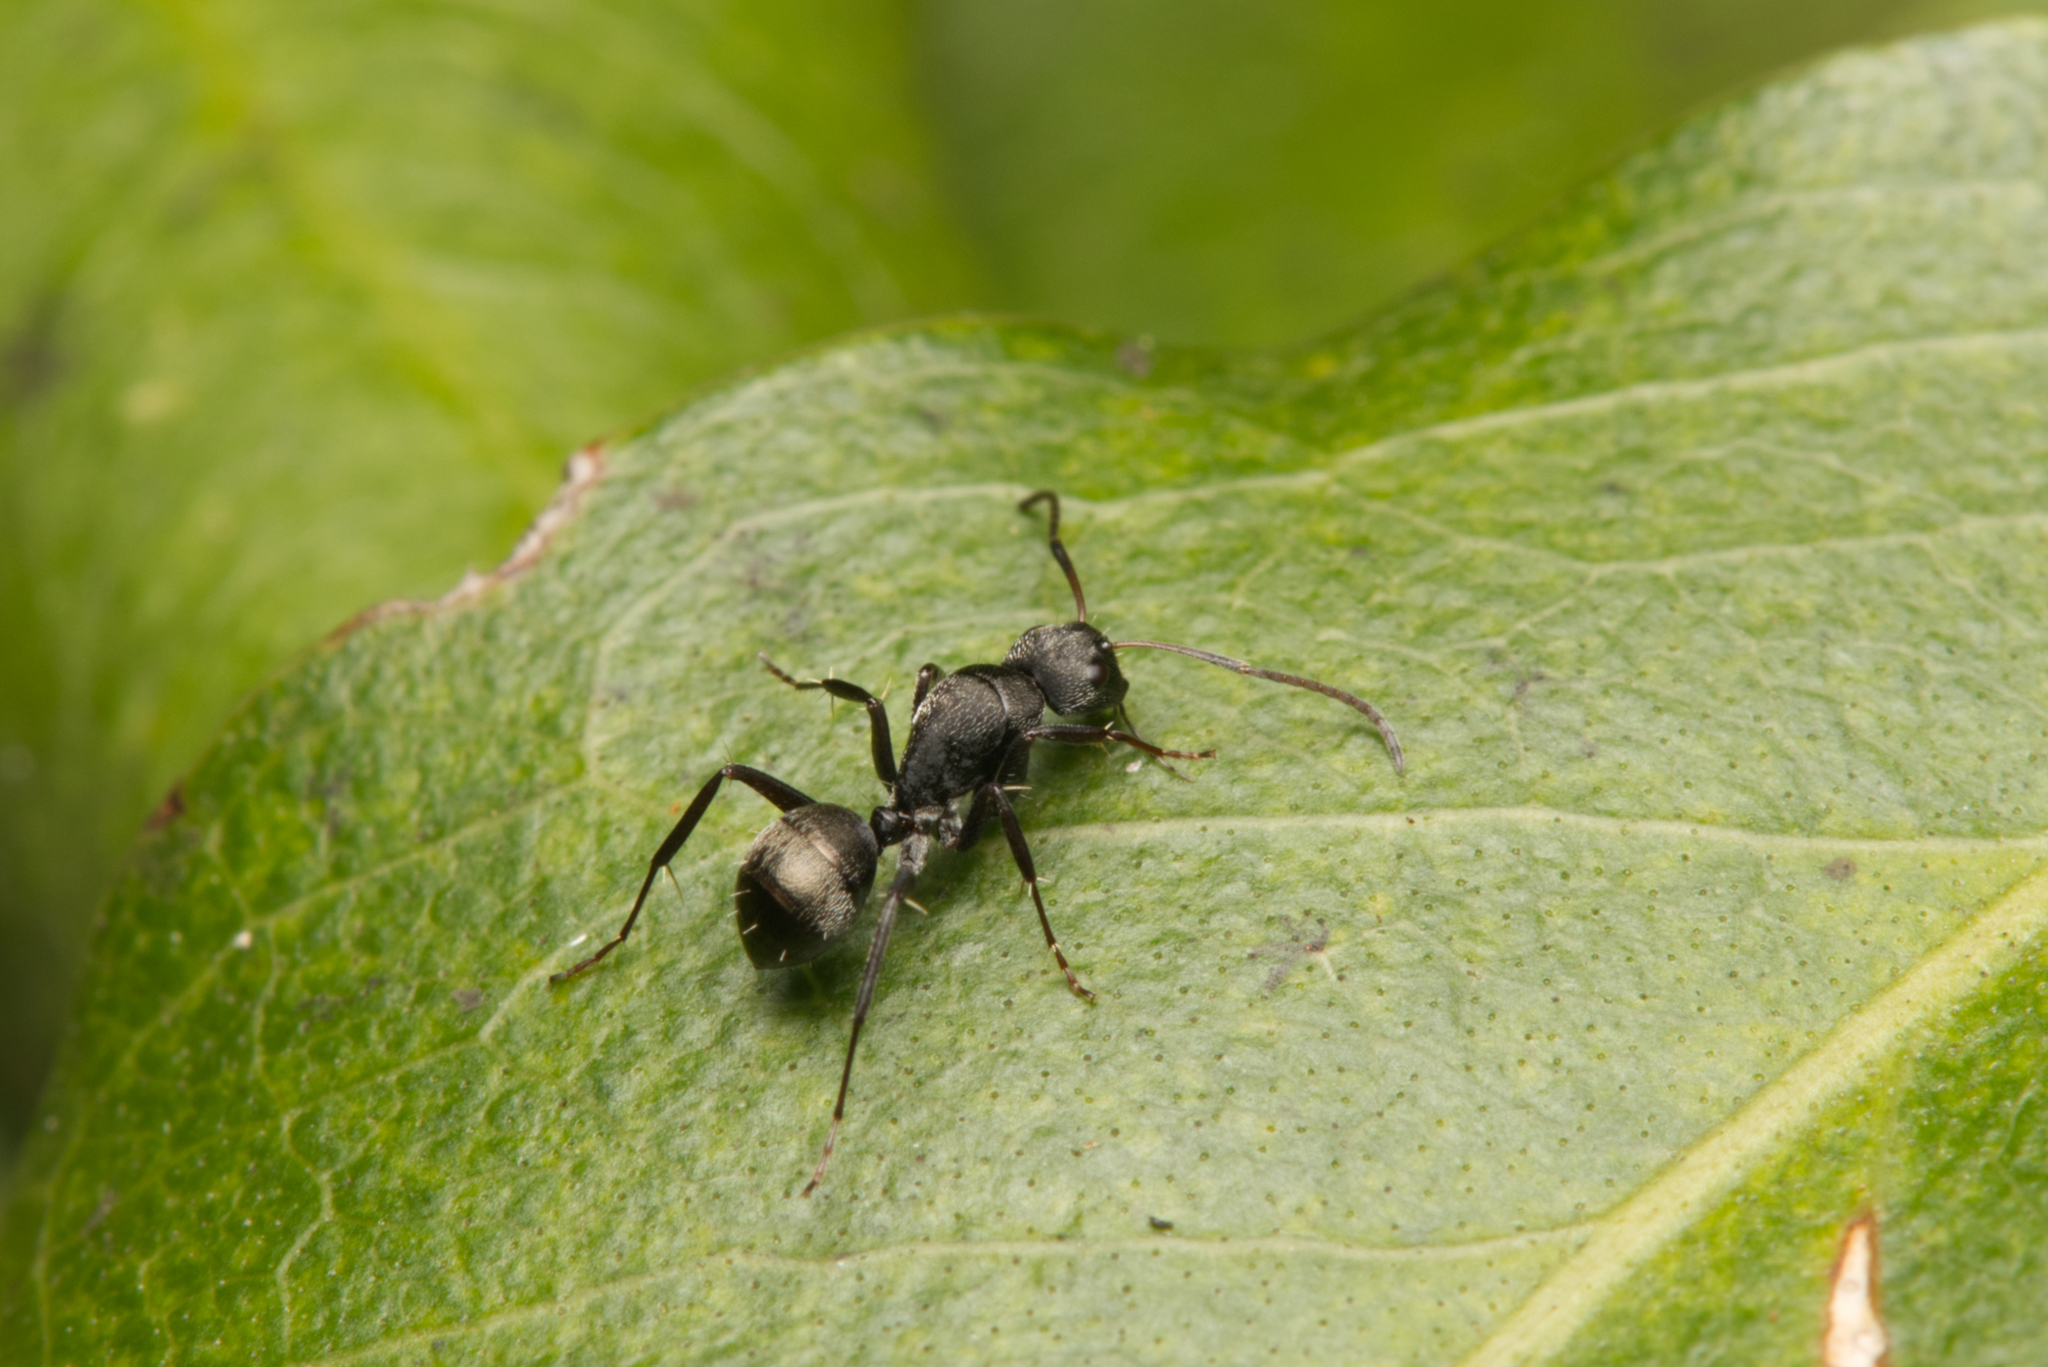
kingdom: Animalia
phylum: Arthropoda
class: Insecta
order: Hymenoptera
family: Formicidae
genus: Camponotus
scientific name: Camponotus esau
